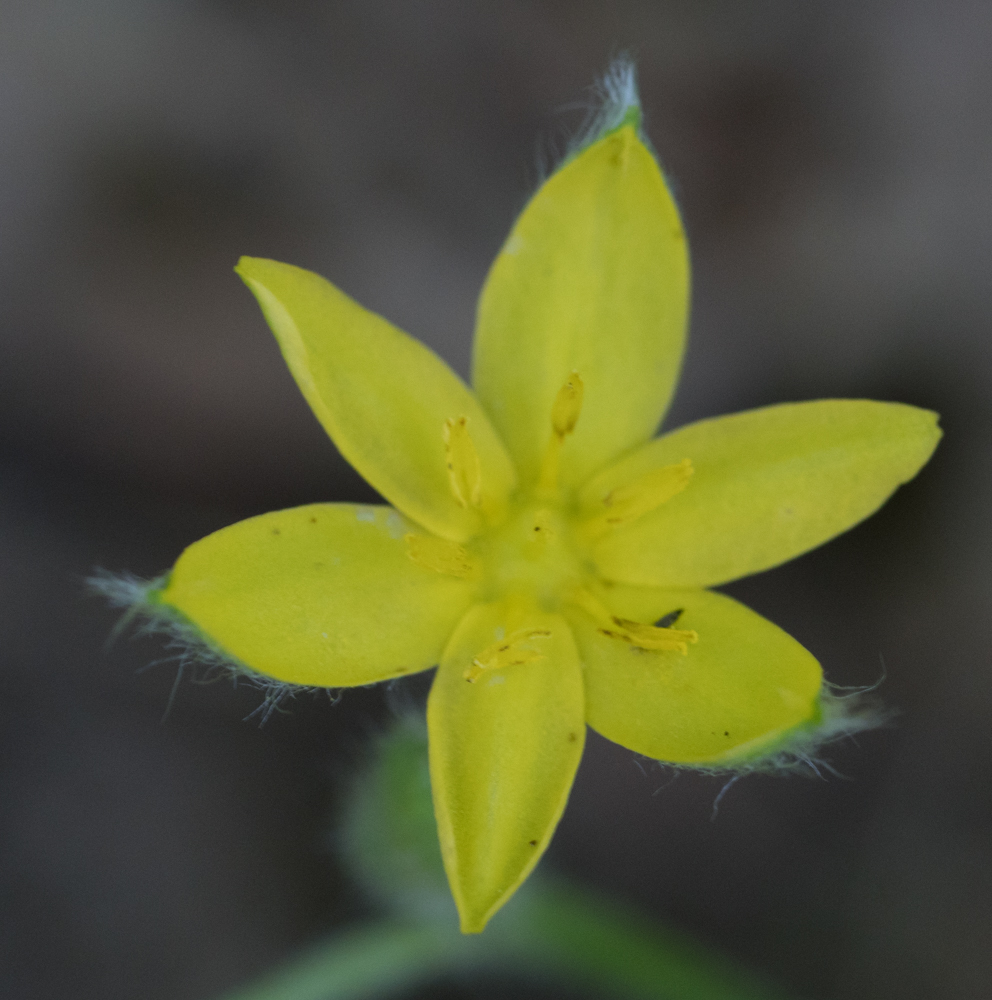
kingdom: Plantae
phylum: Tracheophyta
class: Liliopsida
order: Asparagales
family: Hypoxidaceae
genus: Hypoxis
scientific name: Hypoxis hirsuta
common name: Common goldstar
